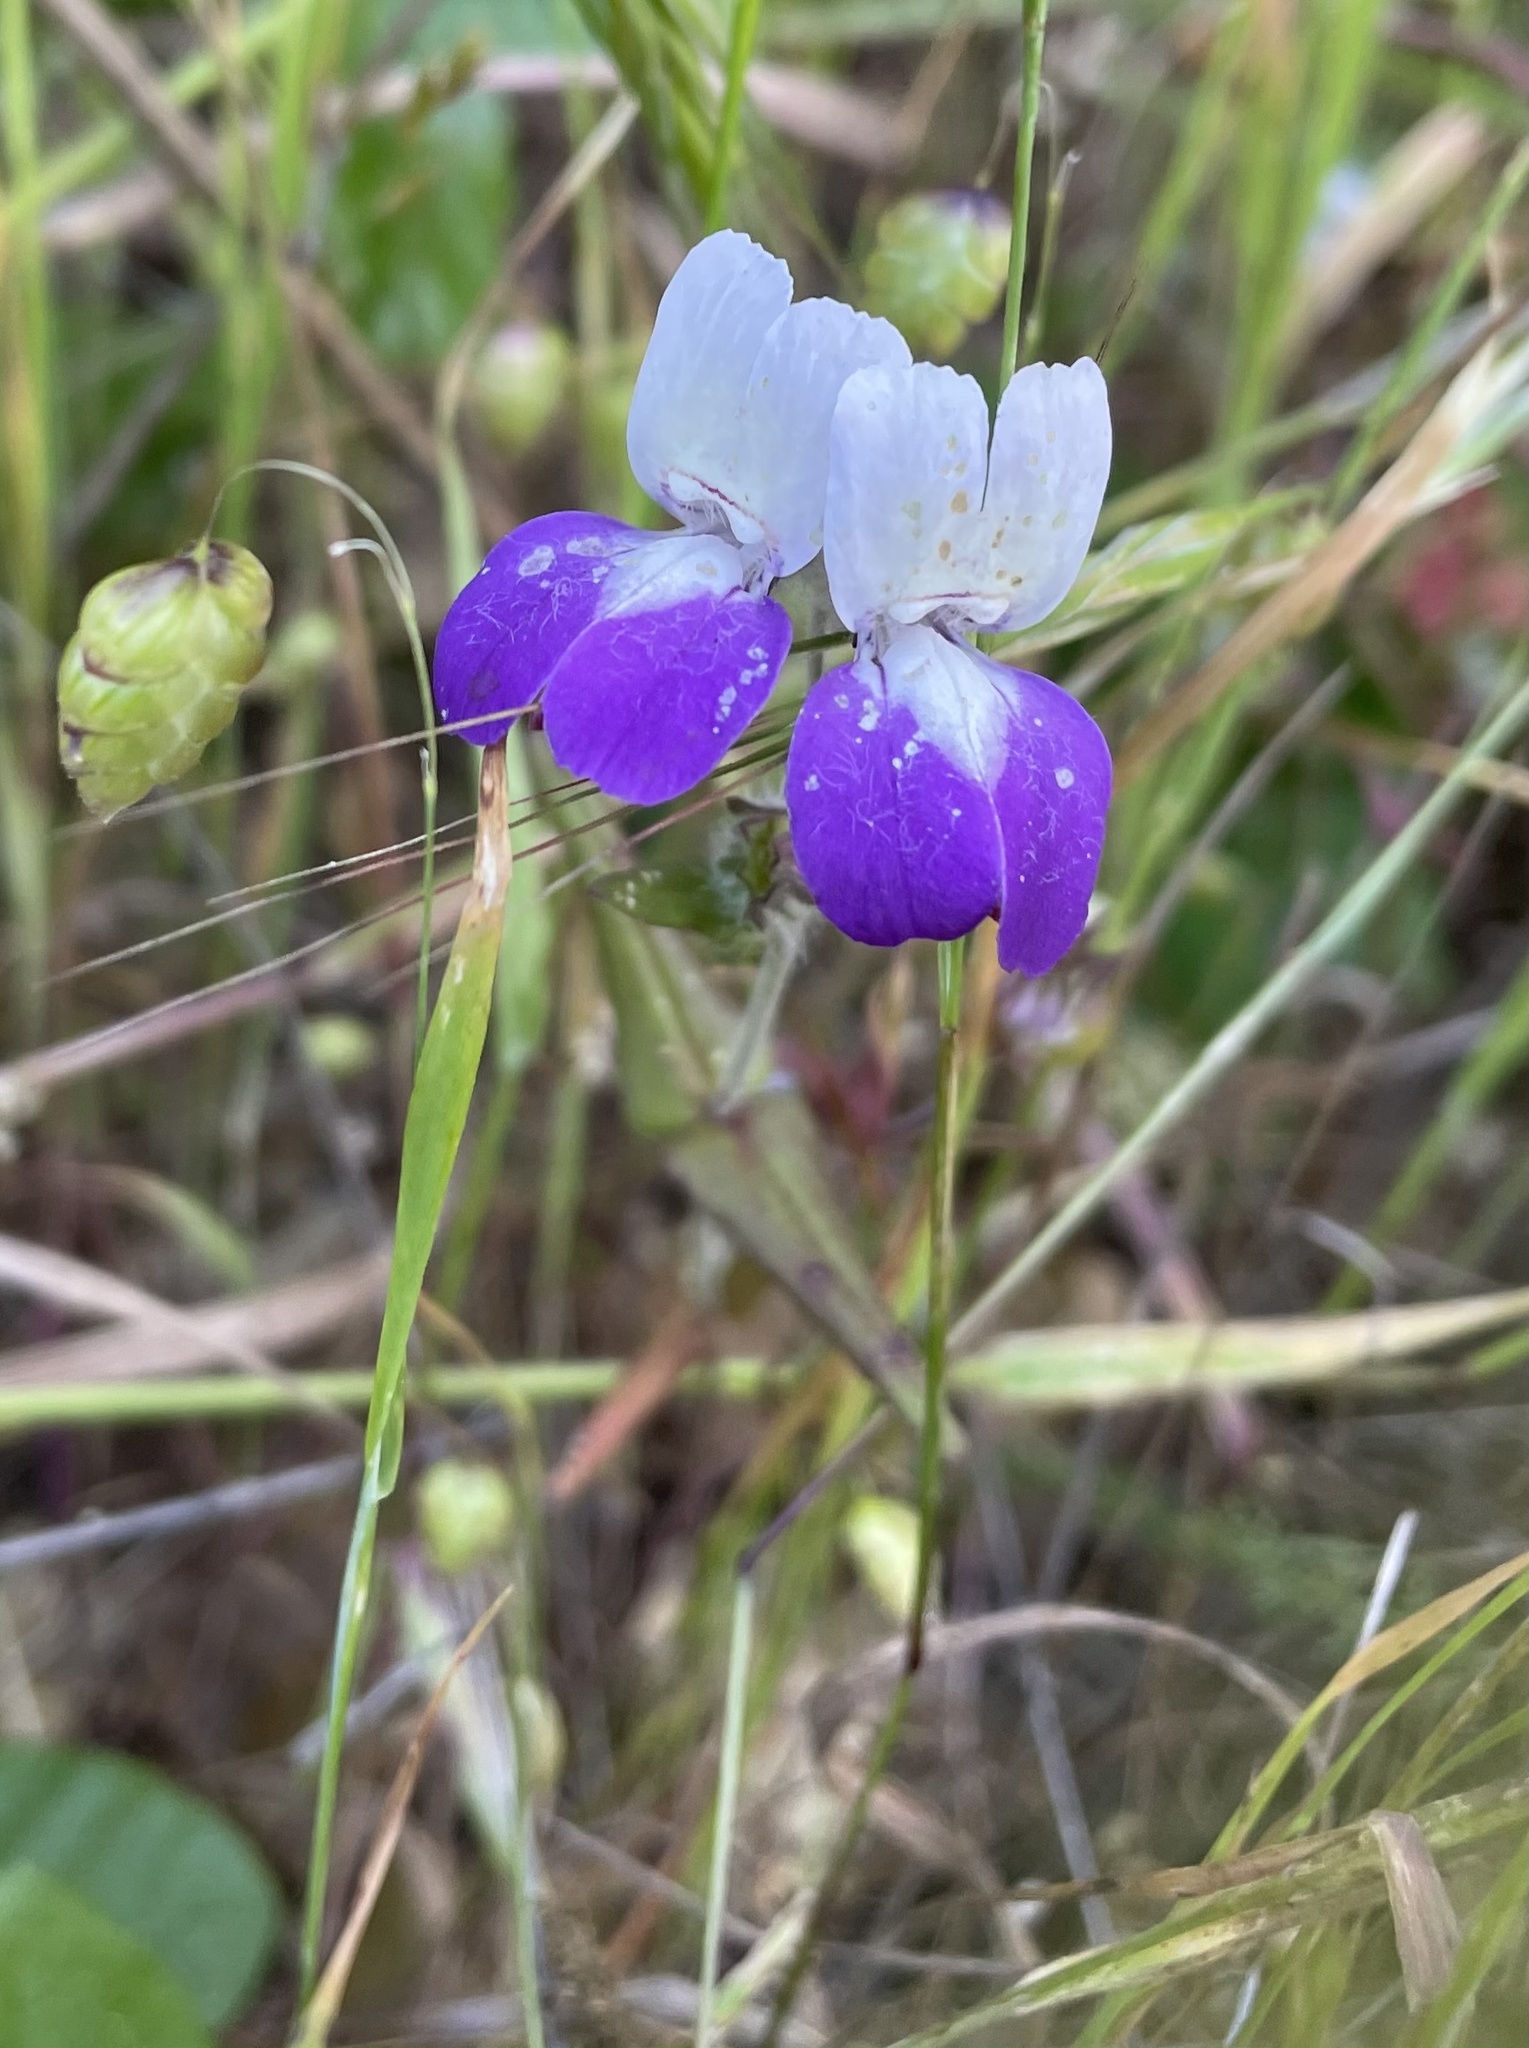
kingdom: Plantae
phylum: Tracheophyta
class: Magnoliopsida
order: Lamiales
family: Plantaginaceae
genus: Collinsia
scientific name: Collinsia heterophylla
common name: Chinese-houses
